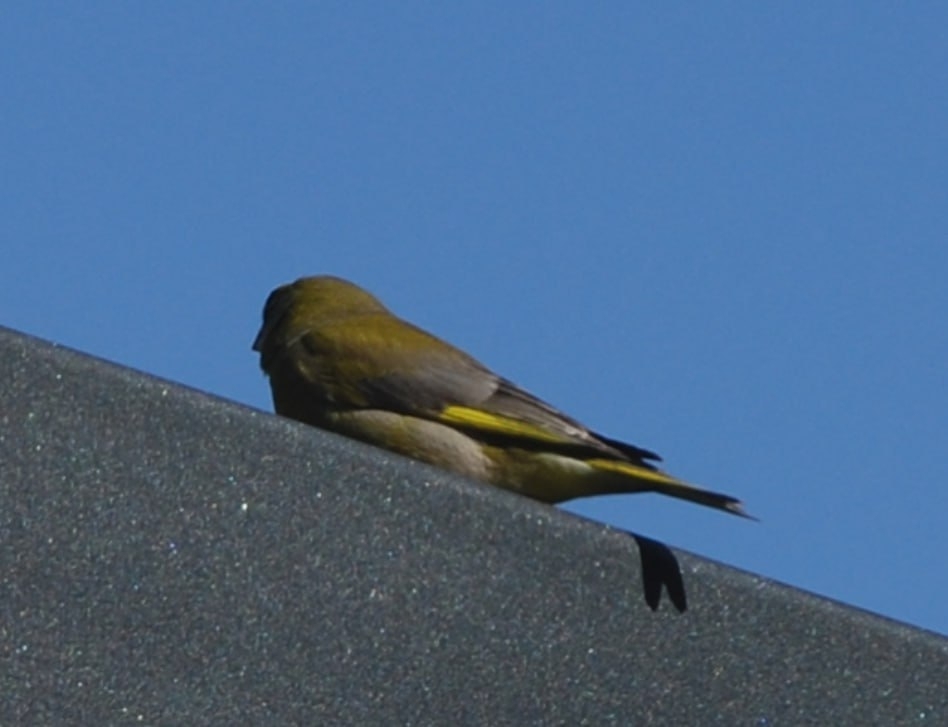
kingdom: Plantae
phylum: Tracheophyta
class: Liliopsida
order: Poales
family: Poaceae
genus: Chloris
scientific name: Chloris chloris
